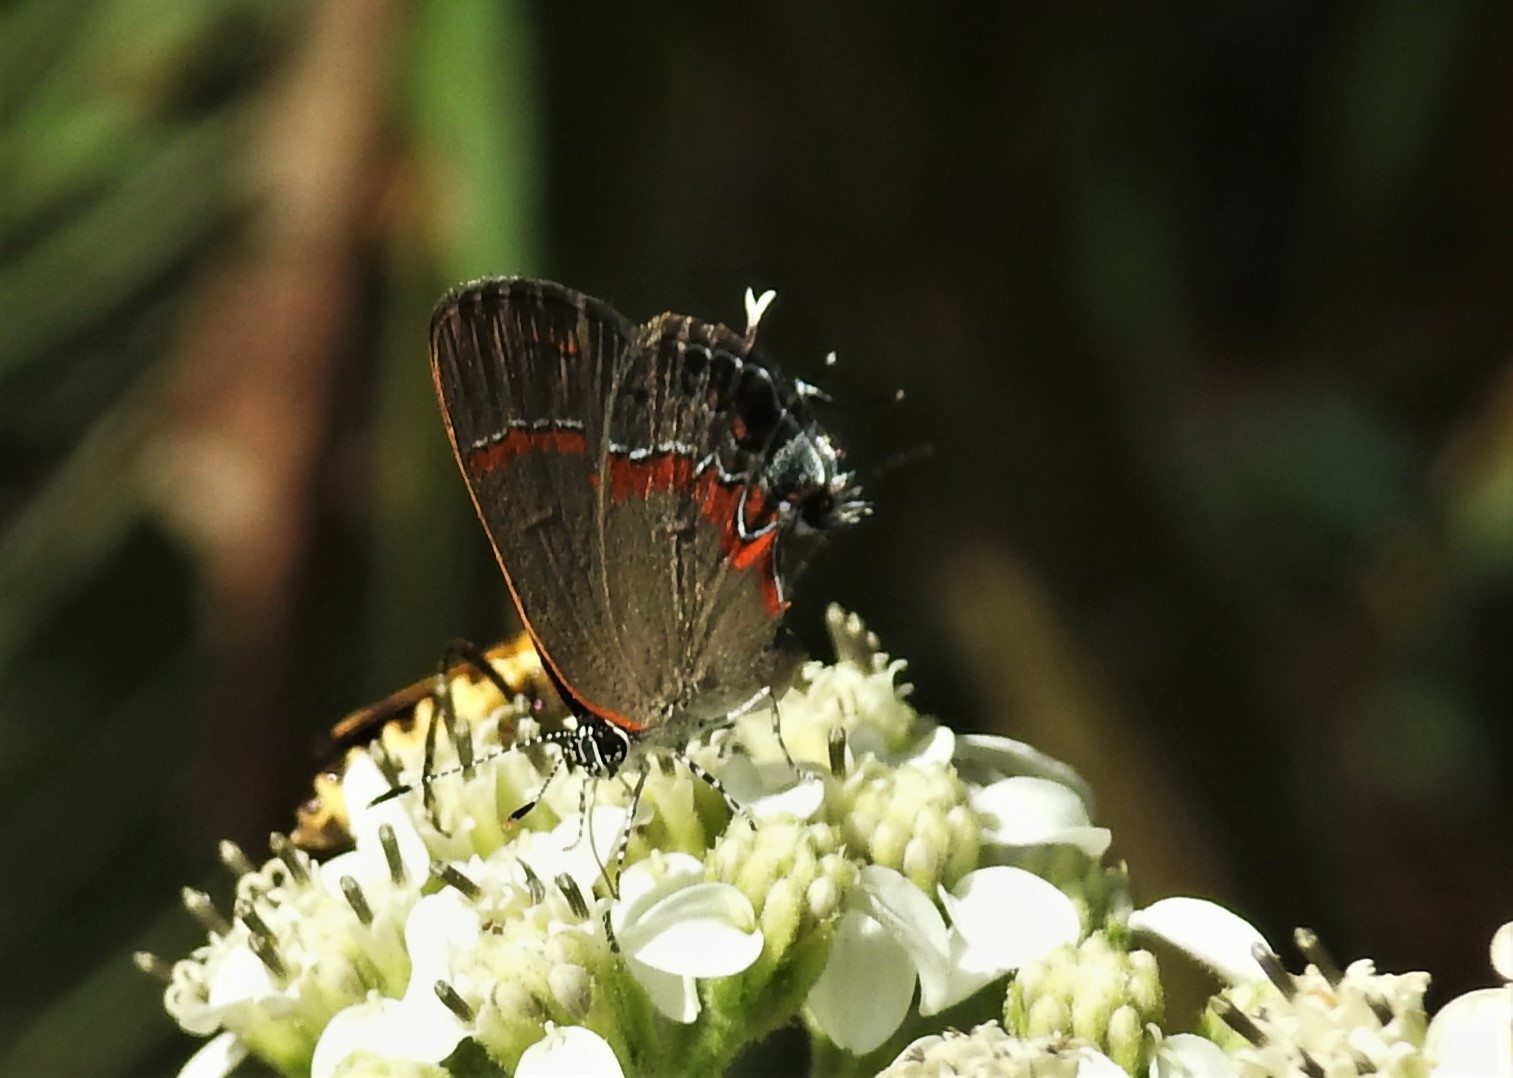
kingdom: Animalia
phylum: Arthropoda
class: Insecta
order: Lepidoptera
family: Lycaenidae
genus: Calycopis
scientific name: Calycopis cecrops
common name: Red-banded hairstreak
